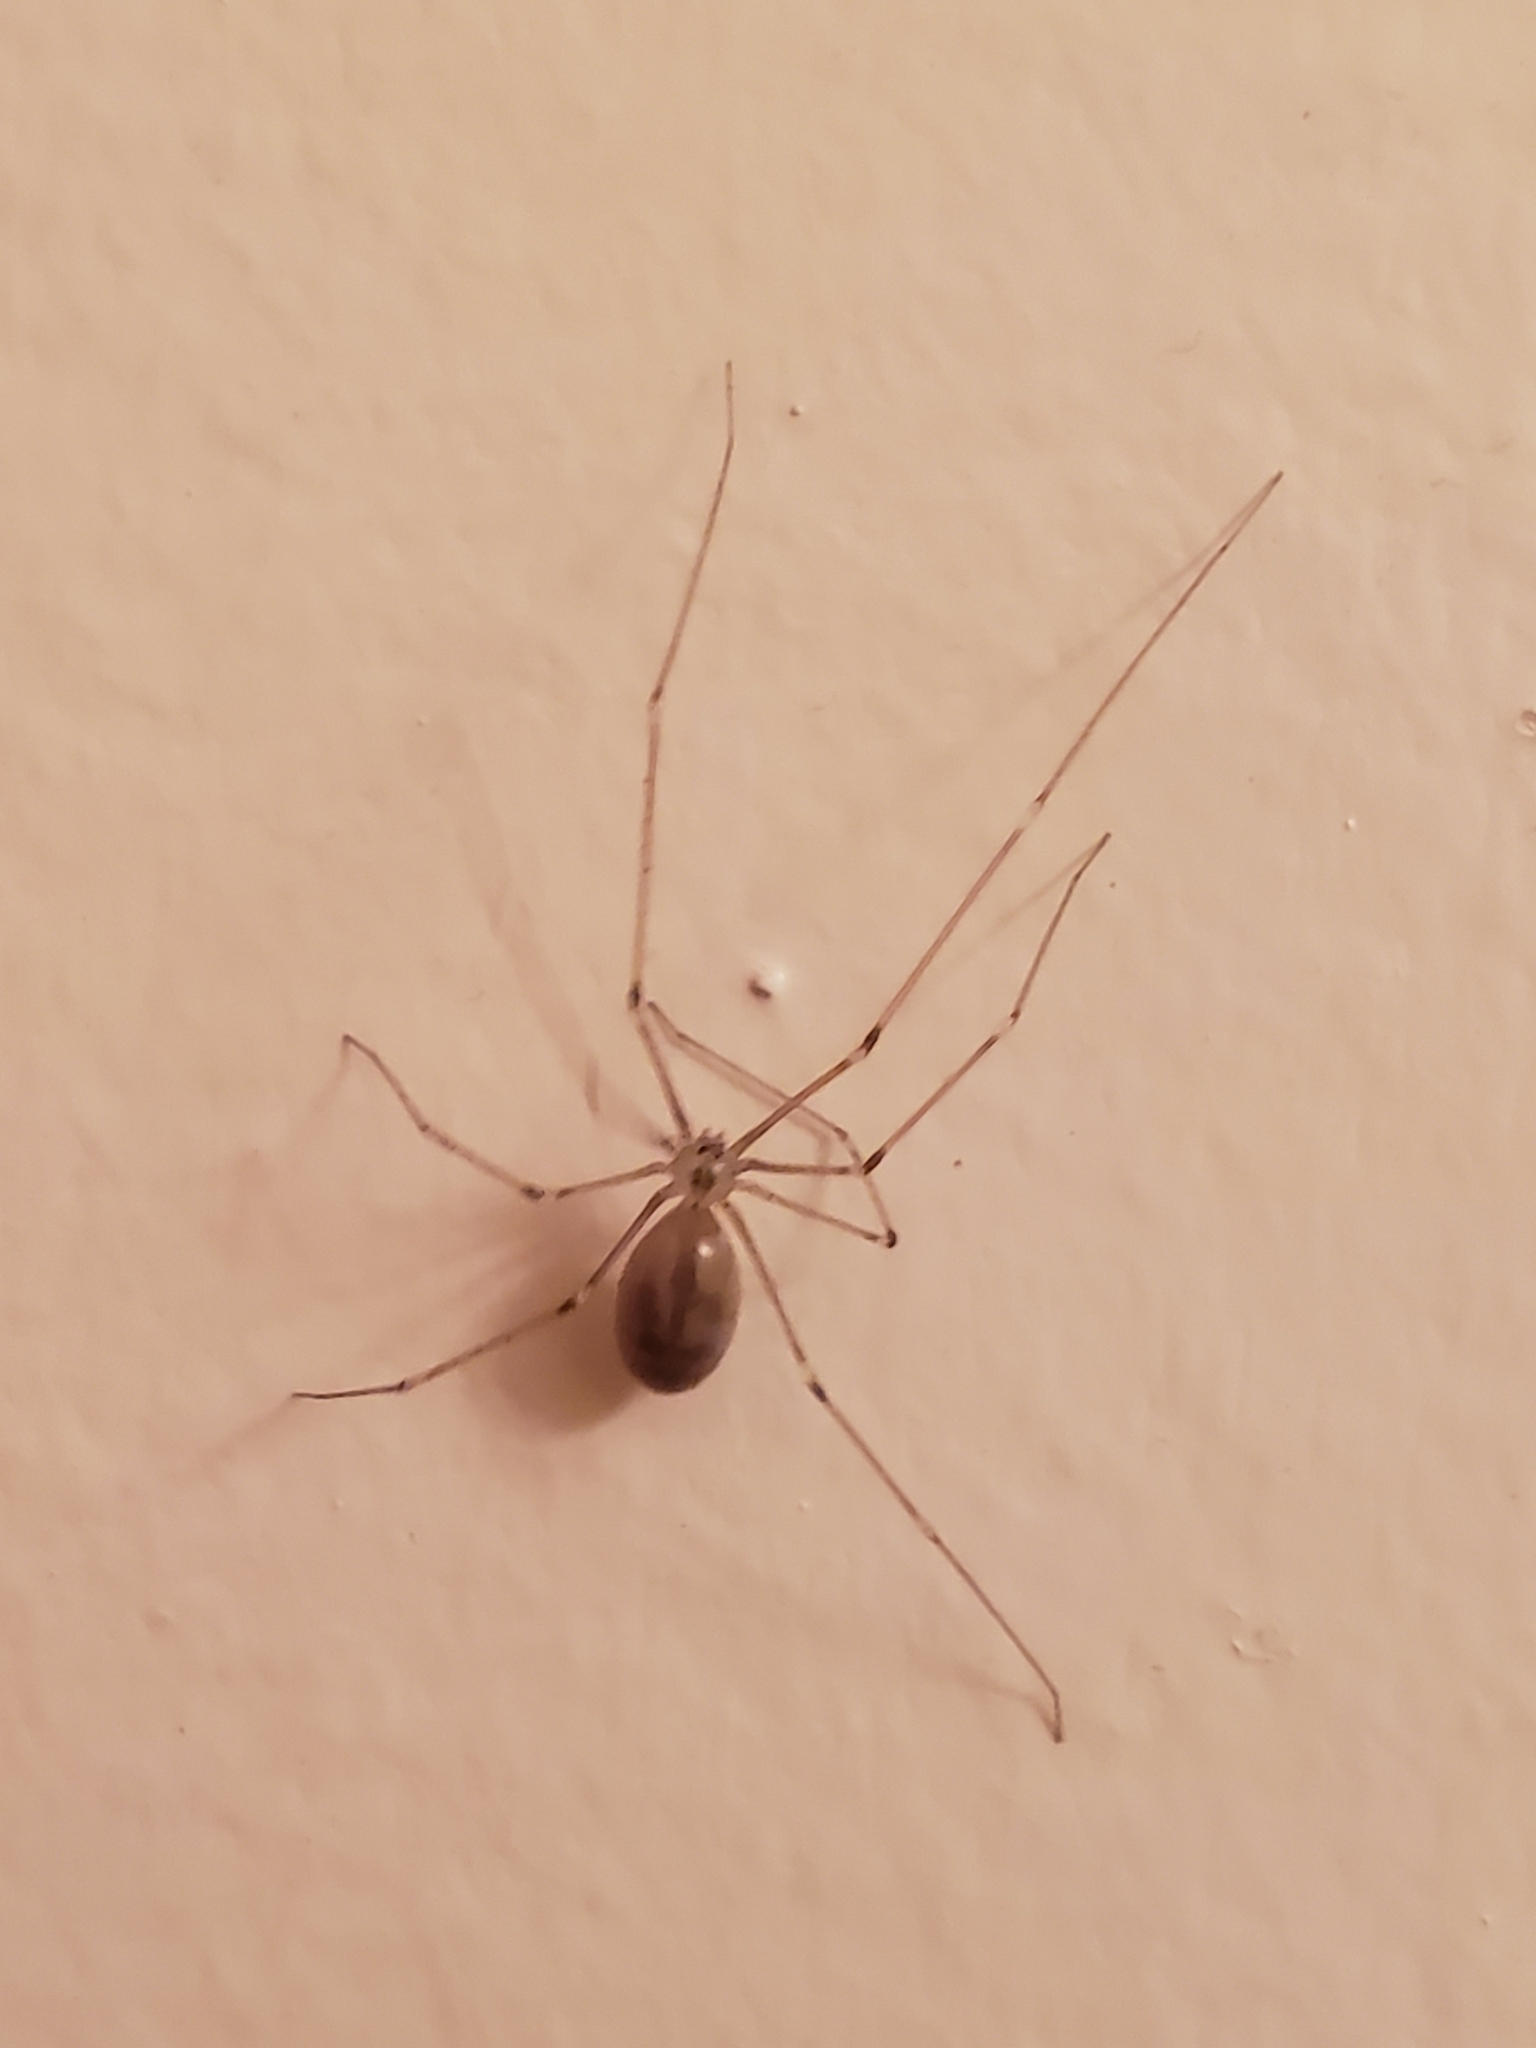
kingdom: Animalia
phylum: Arthropoda
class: Arachnida
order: Araneae
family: Pholcidae
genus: Pholcus
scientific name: Pholcus phalangioides
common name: Longbodied cellar spider
